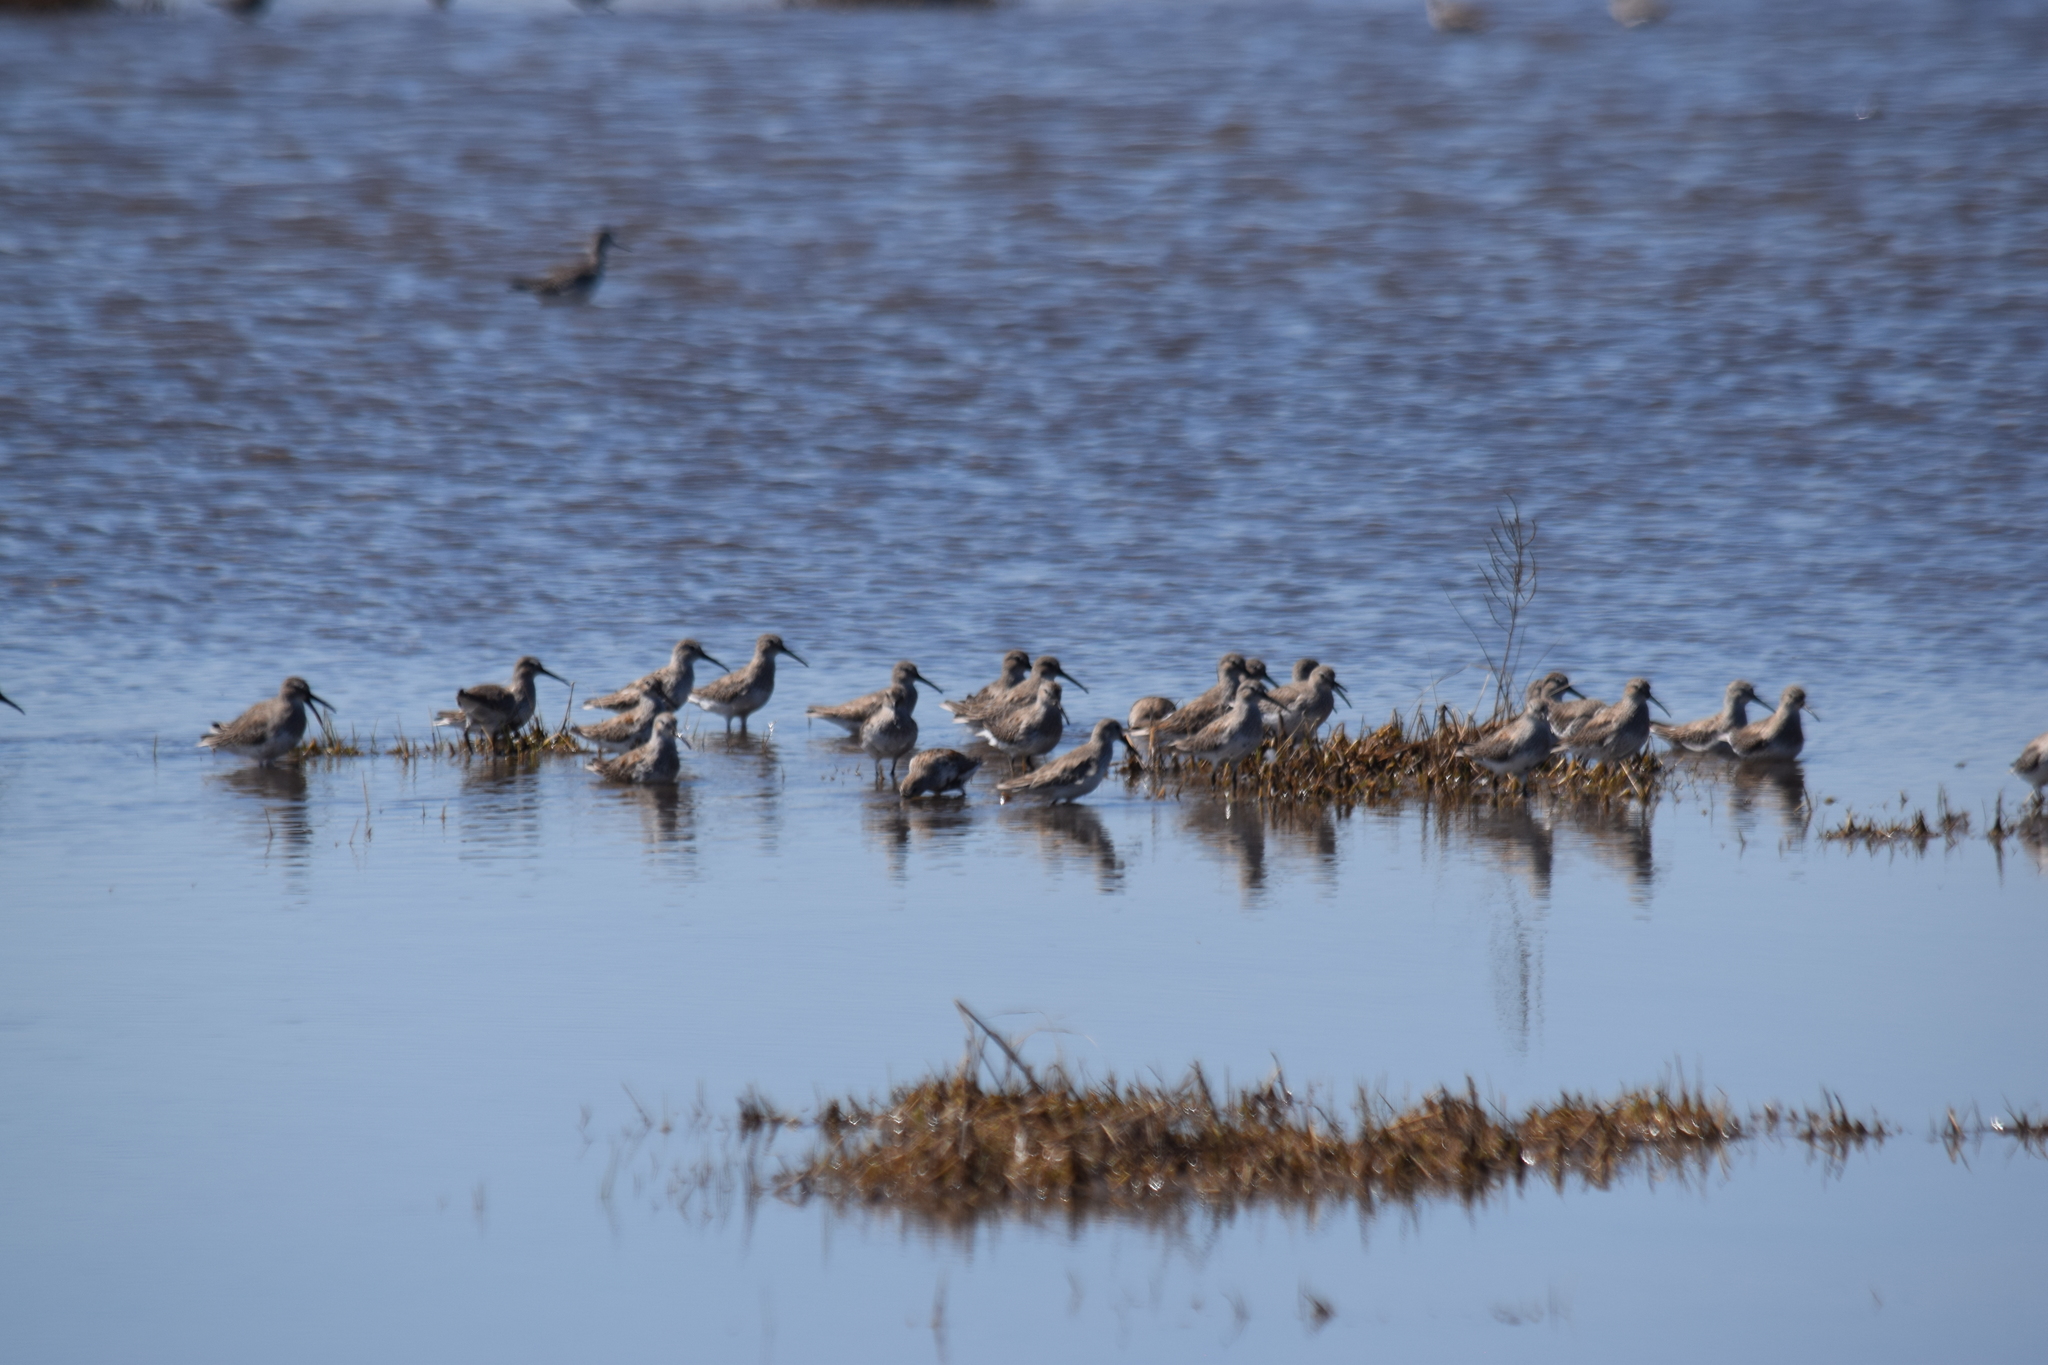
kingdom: Animalia
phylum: Chordata
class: Aves
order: Charadriiformes
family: Scolopacidae
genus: Calidris
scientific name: Calidris alpina
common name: Dunlin
